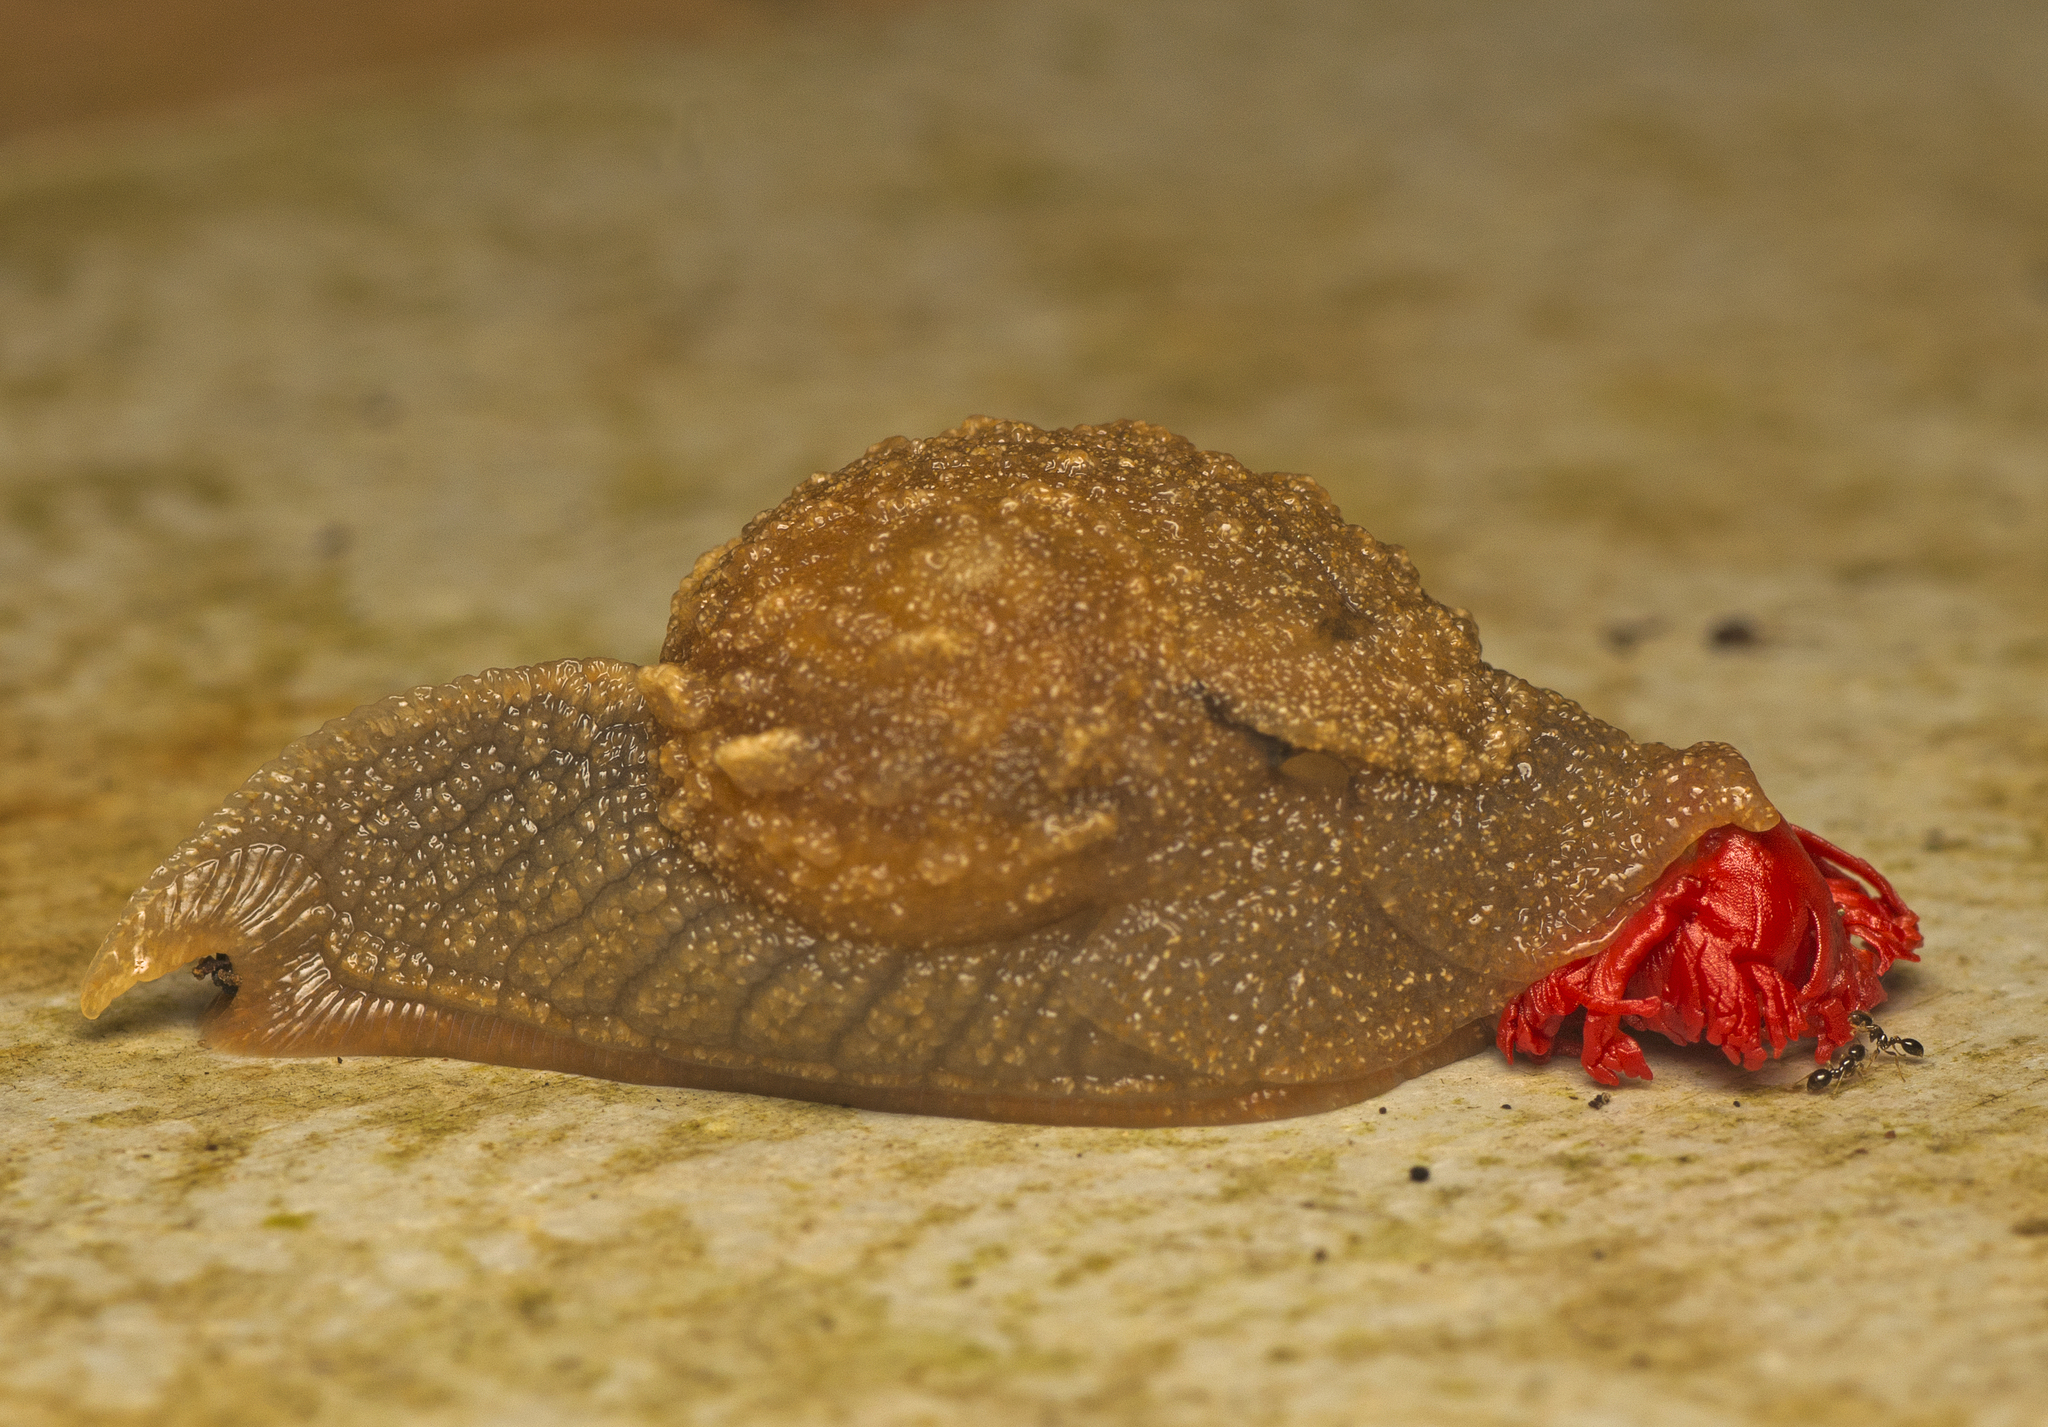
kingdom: Animalia
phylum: Mollusca
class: Gastropoda
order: Stylommatophora
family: Helicarionidae
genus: Fastosarion
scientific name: Fastosarion brazieri
